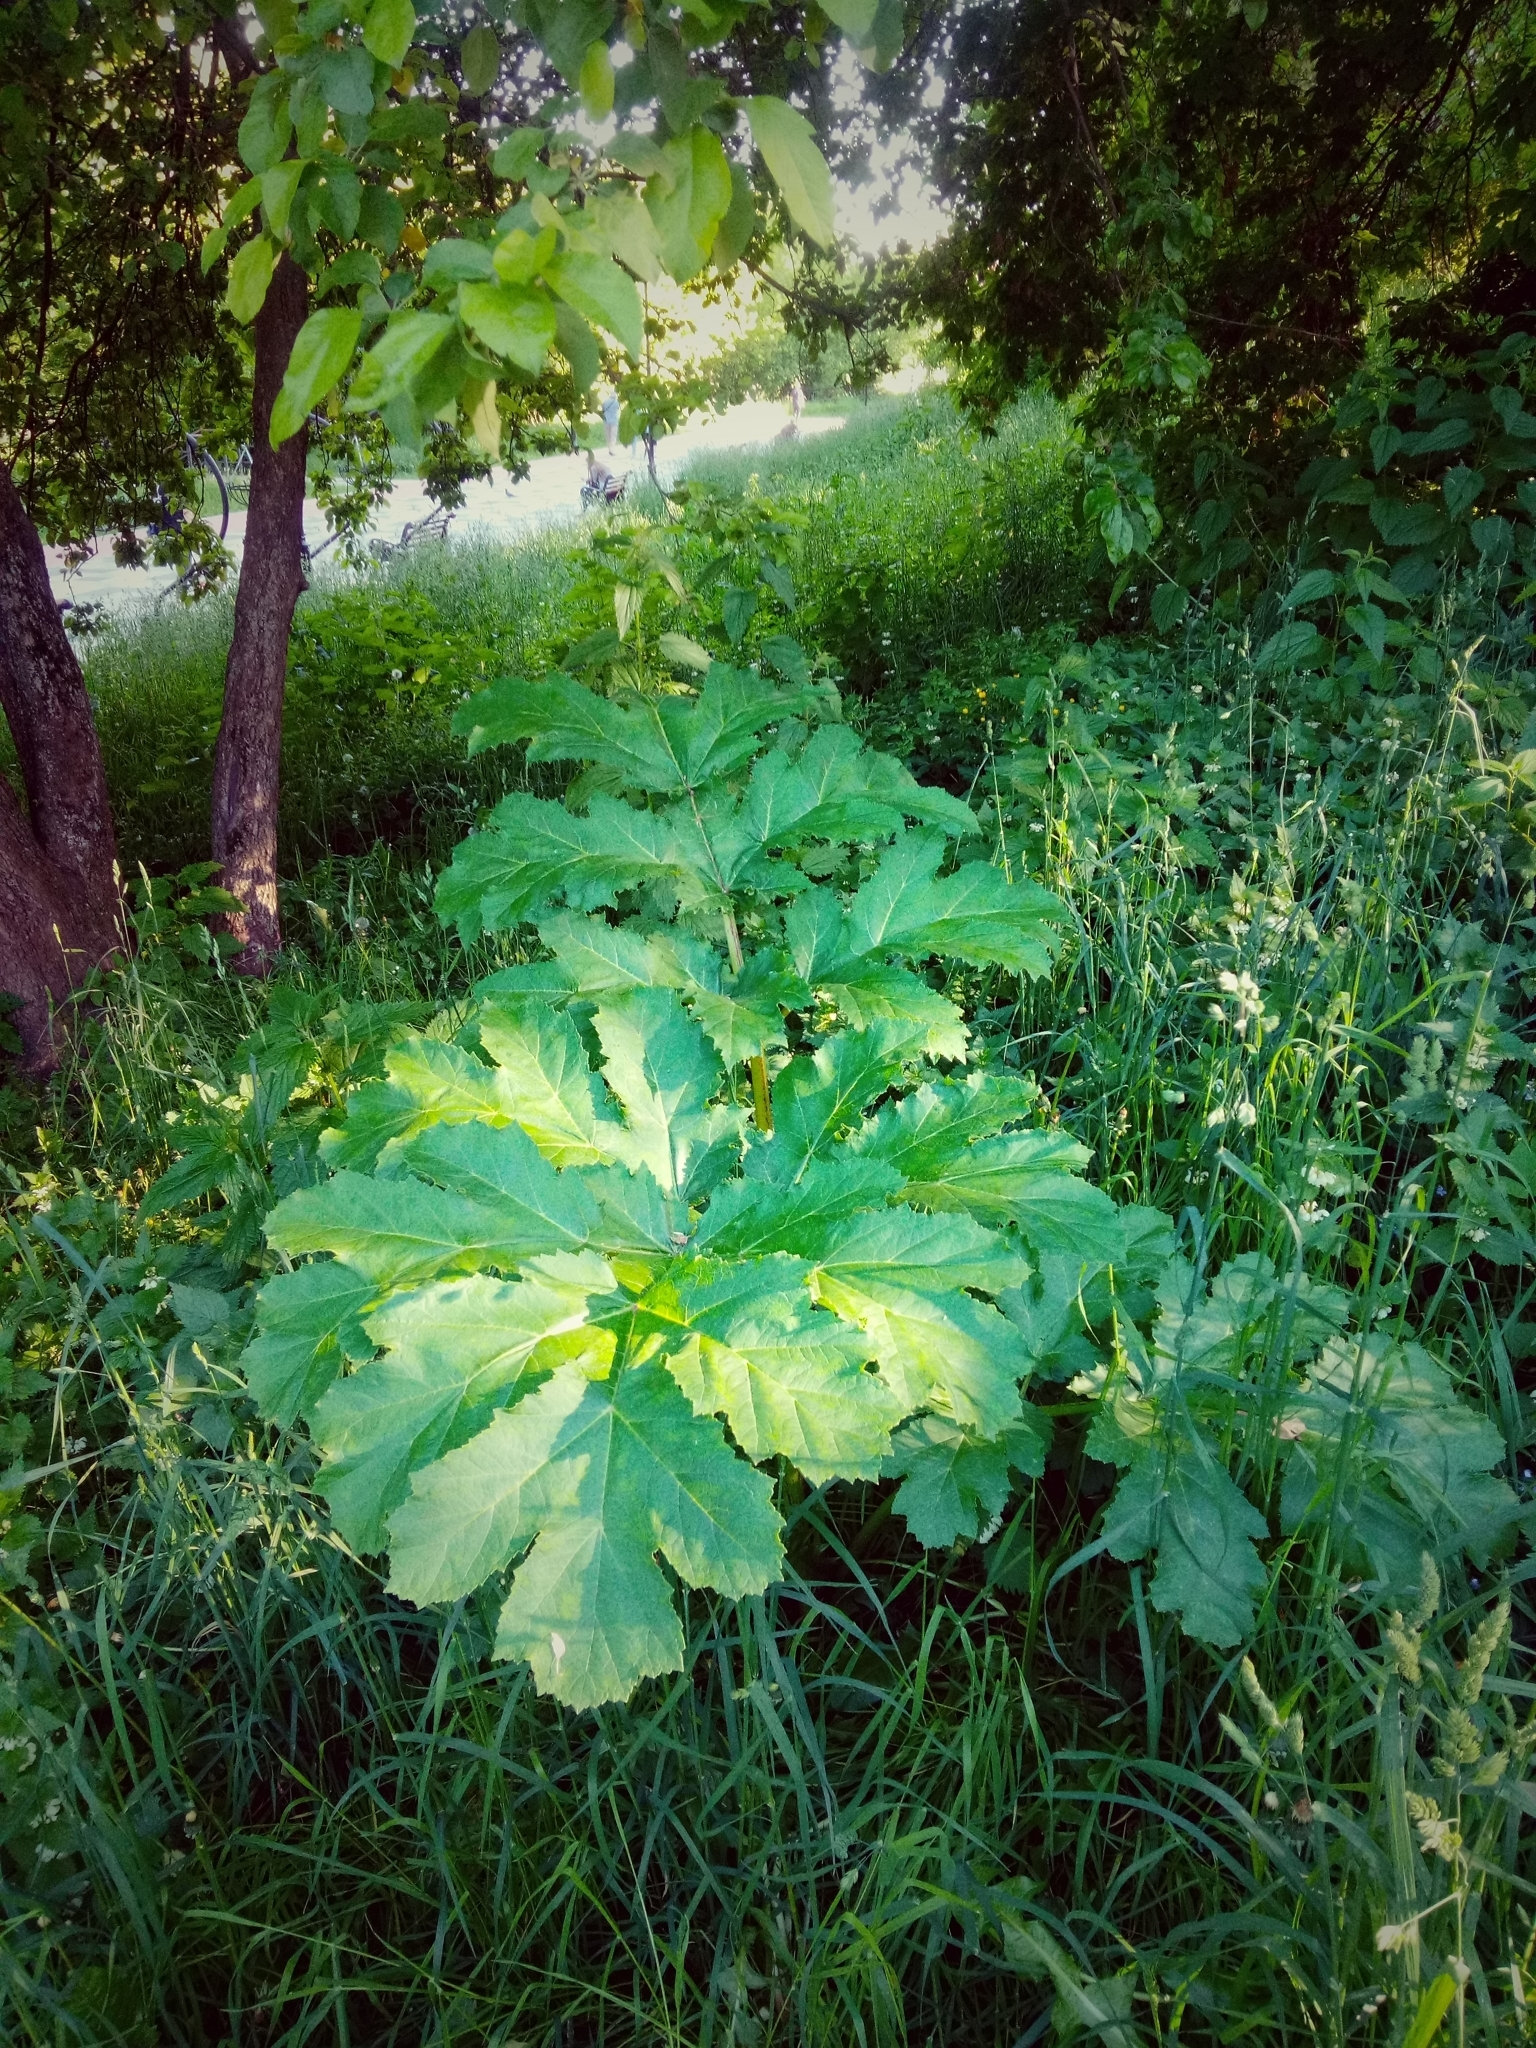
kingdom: Plantae
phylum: Tracheophyta
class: Magnoliopsida
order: Apiales
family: Apiaceae
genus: Heracleum
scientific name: Heracleum sosnowskyi
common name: Sosnowsky's hogweed
